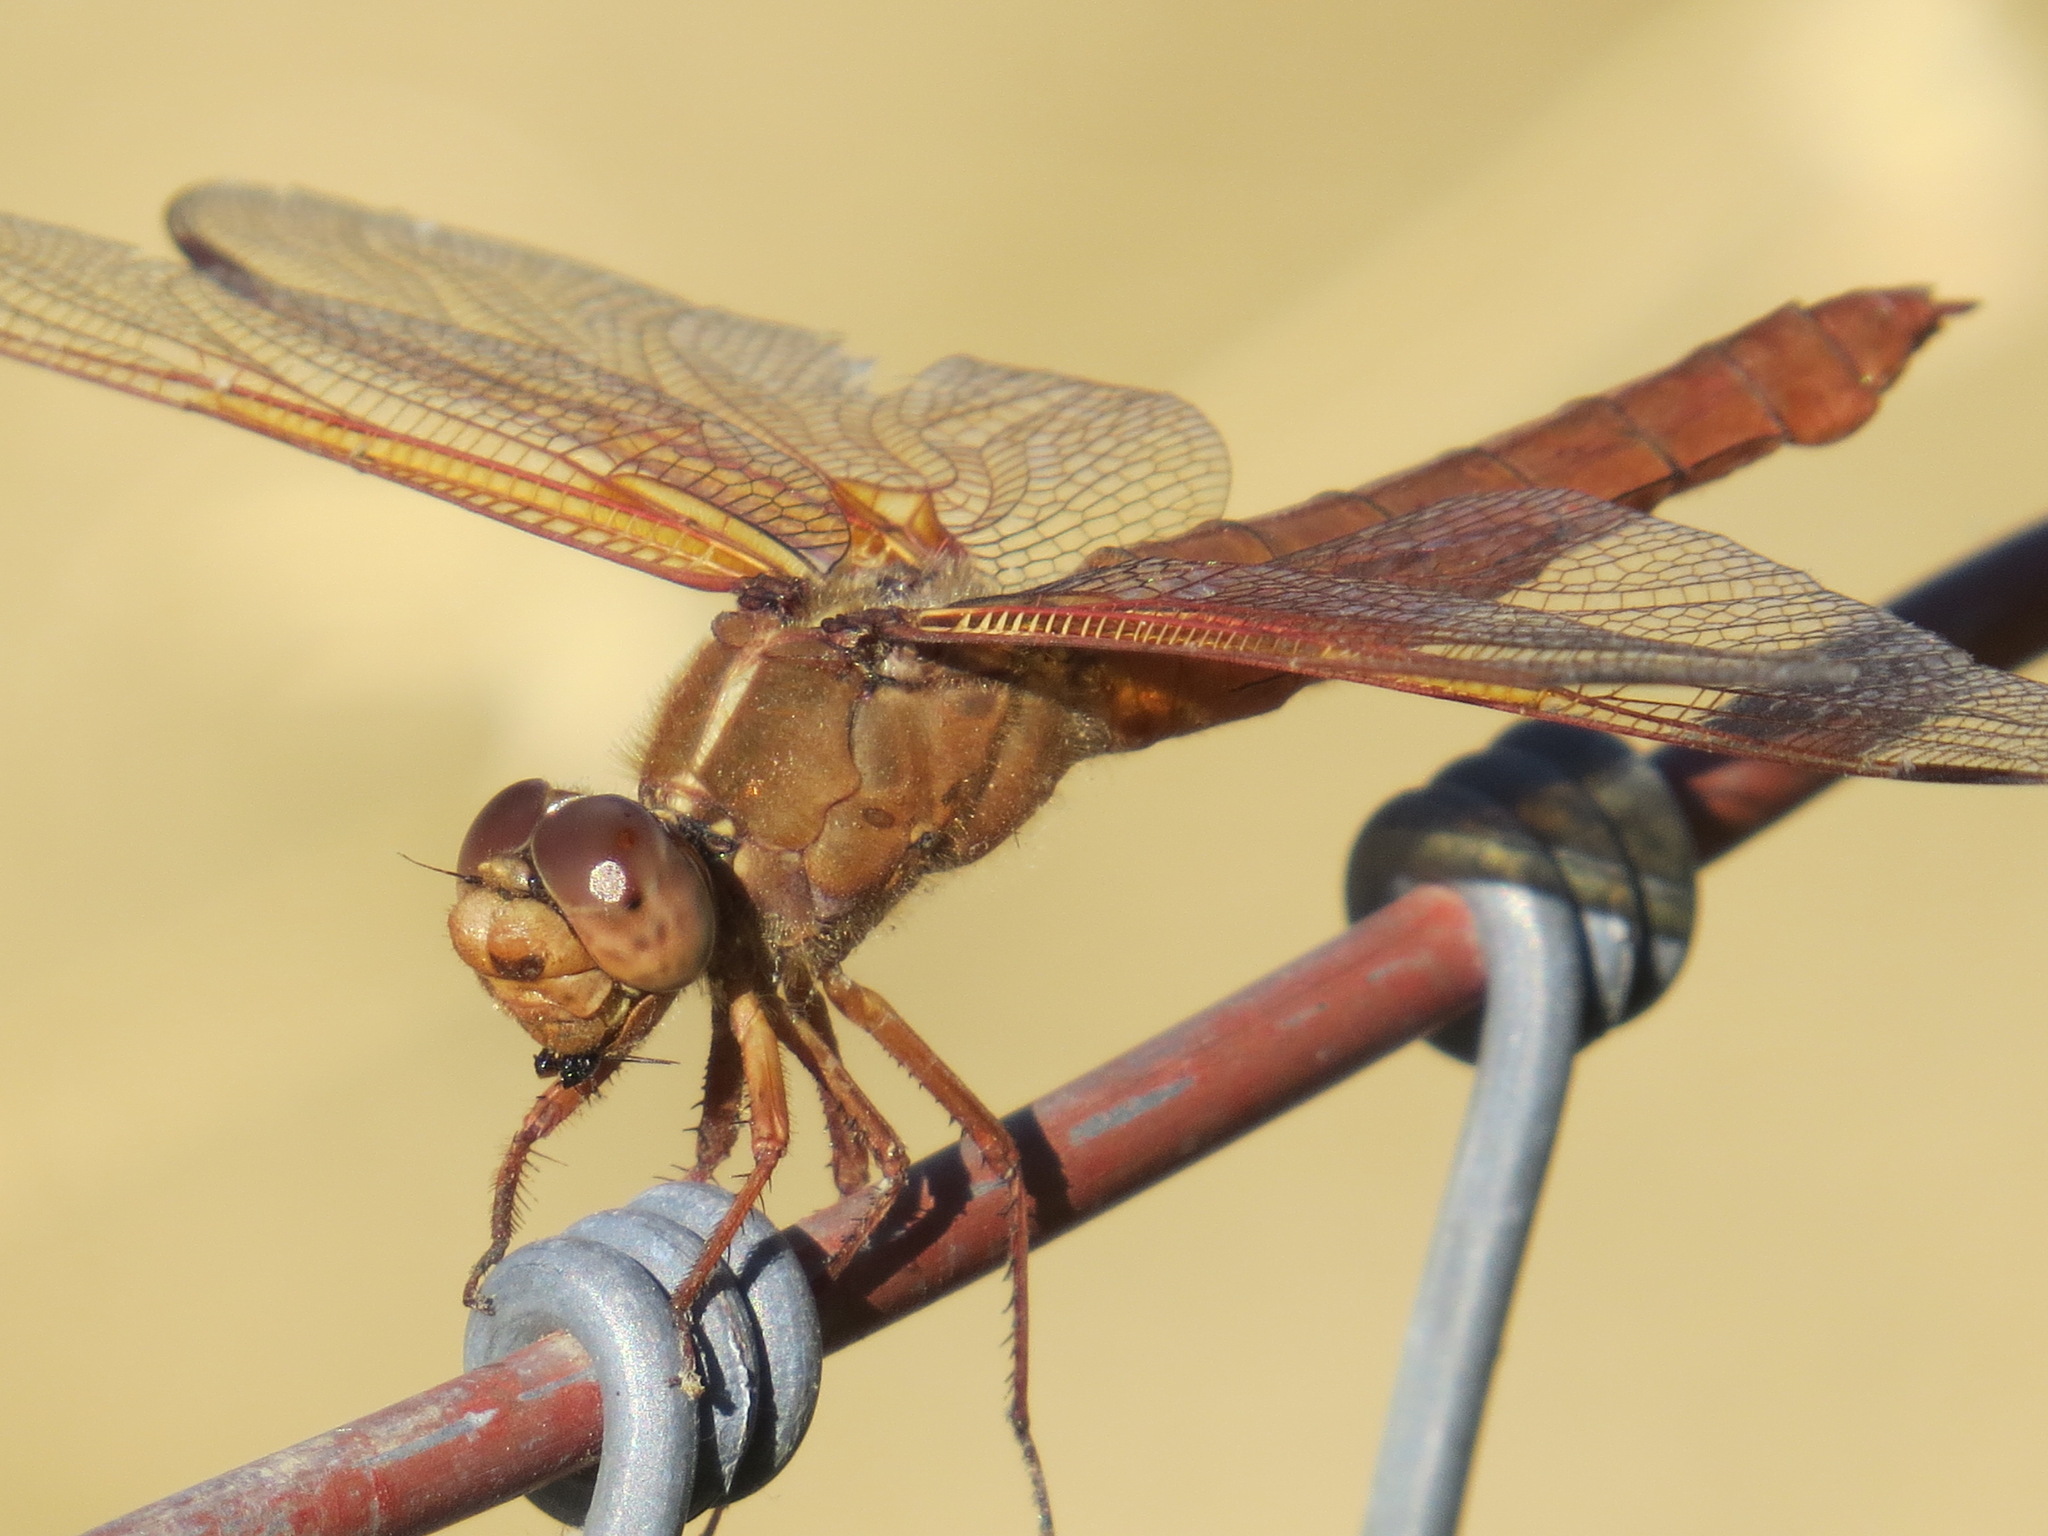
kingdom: Animalia
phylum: Arthropoda
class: Insecta
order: Odonata
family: Libellulidae
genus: Libellula
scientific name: Libellula saturata
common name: Flame skimmer
